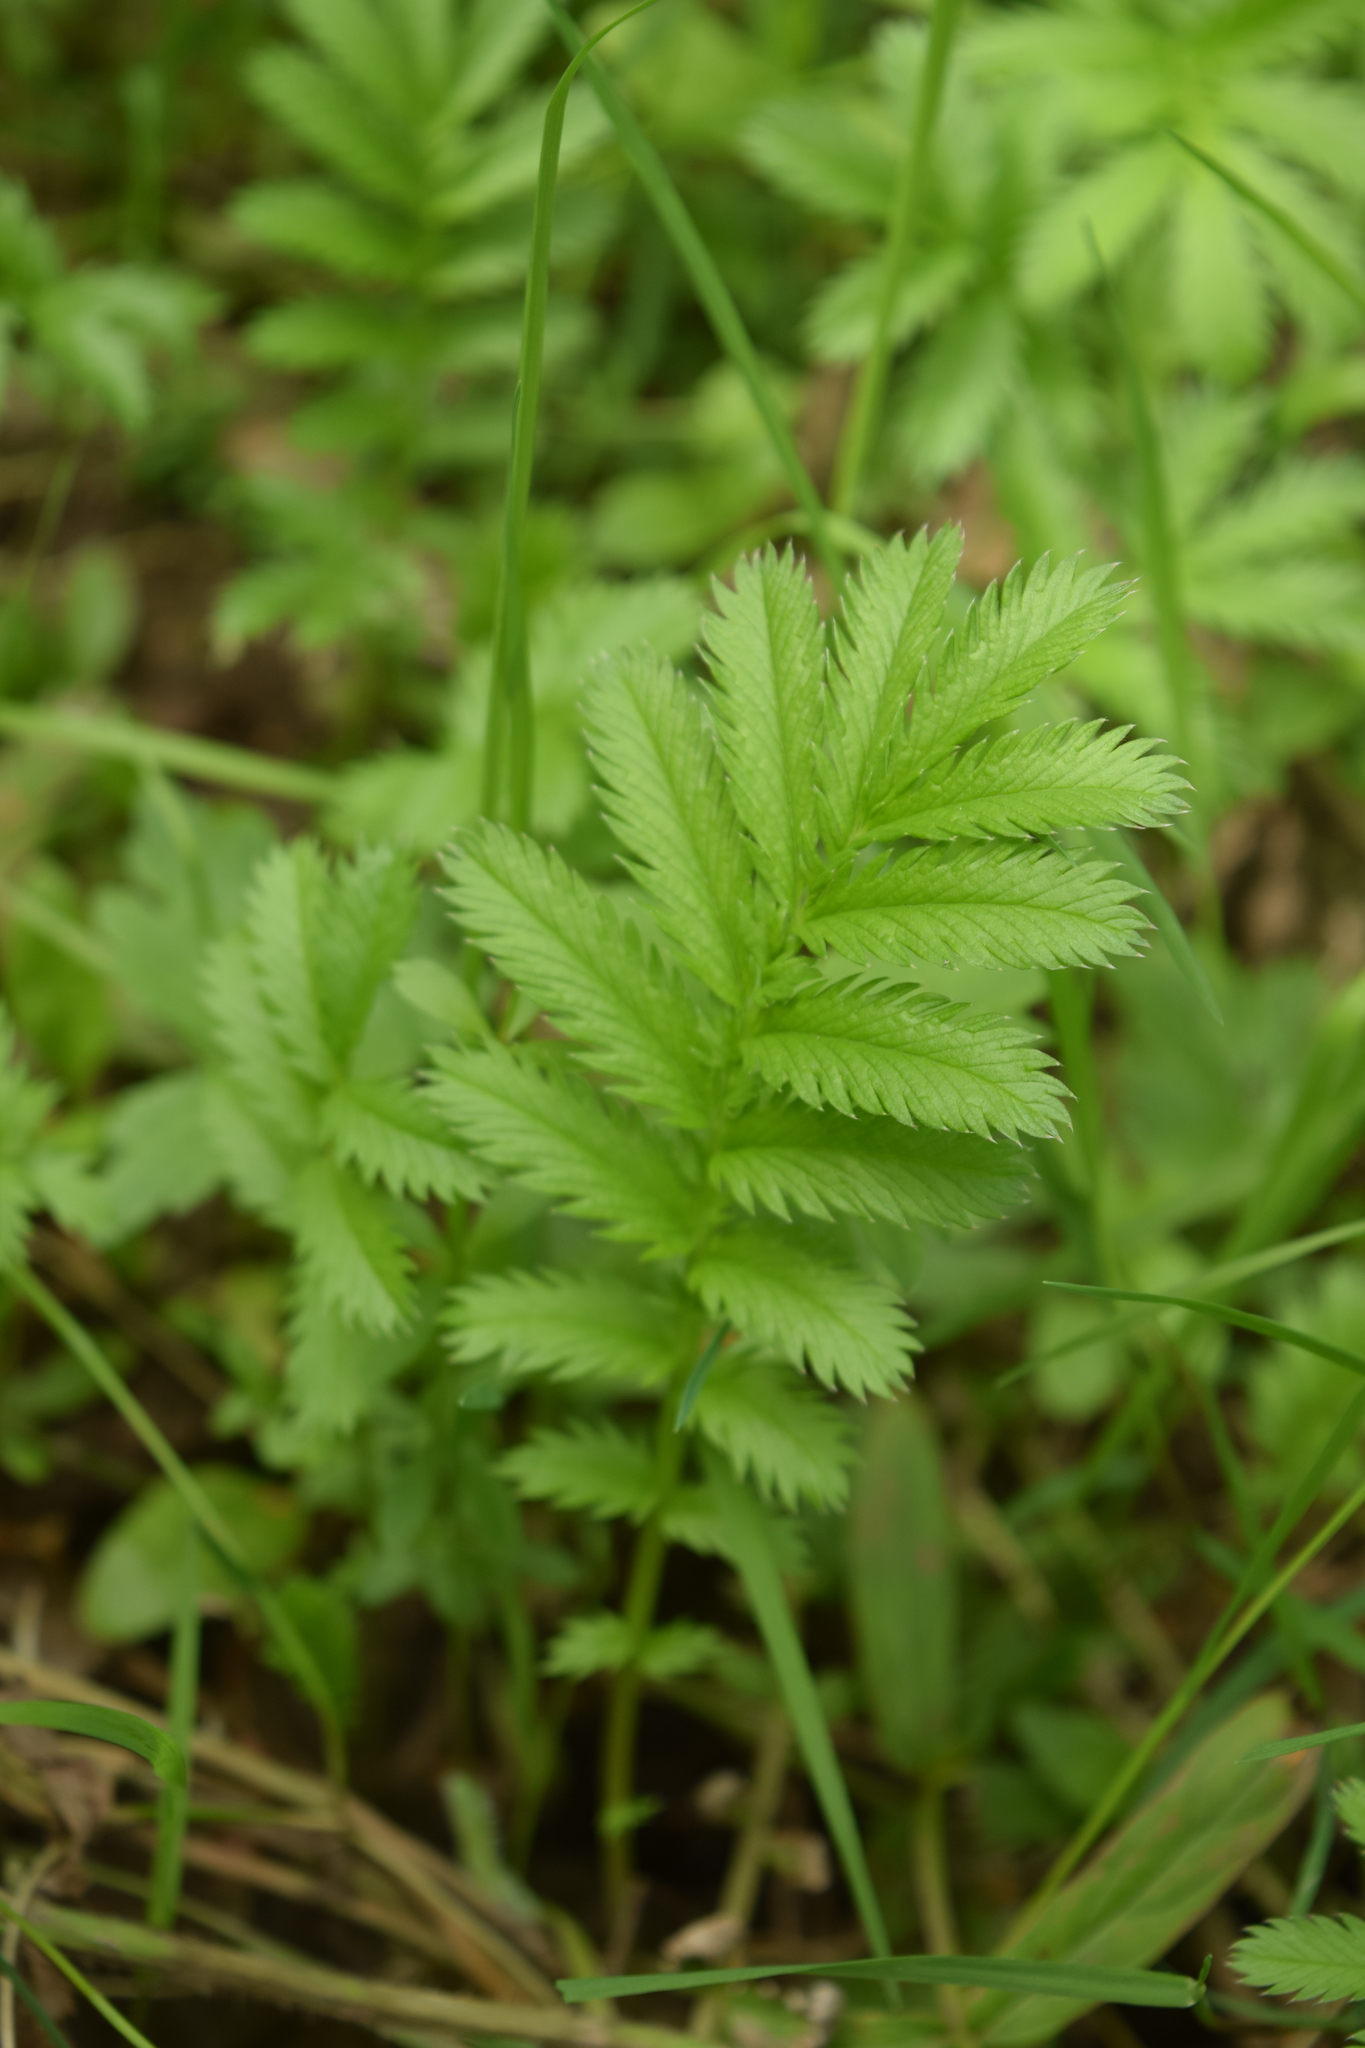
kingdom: Plantae
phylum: Tracheophyta
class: Magnoliopsida
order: Rosales
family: Rosaceae
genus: Argentina
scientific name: Argentina anserina
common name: Common silverweed
